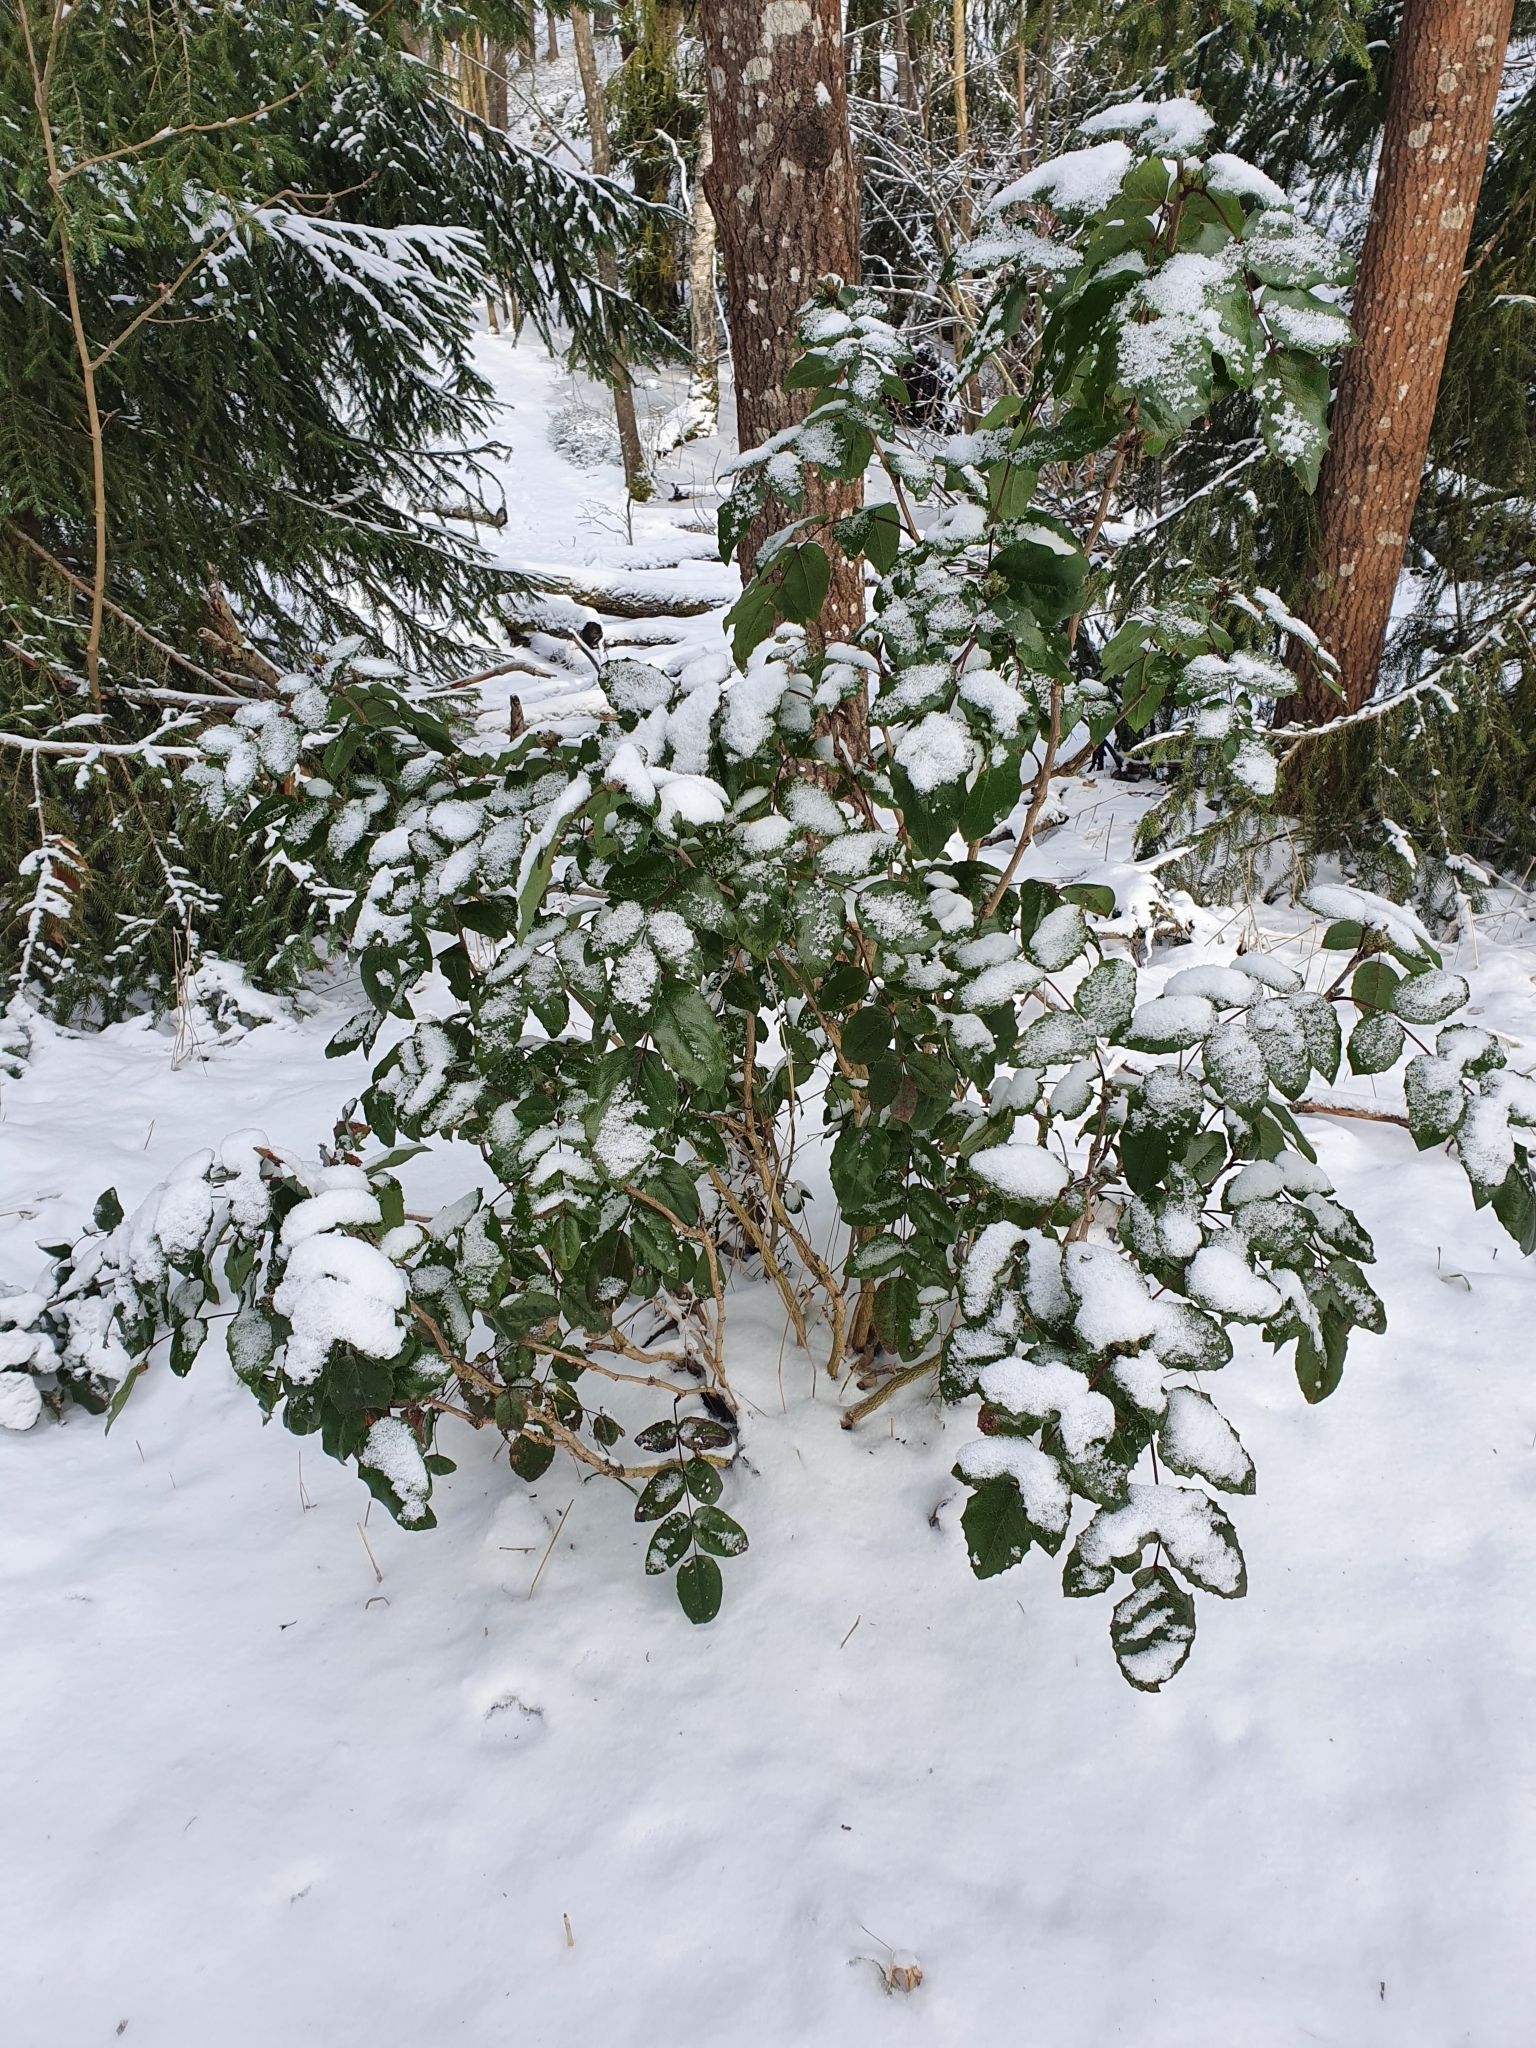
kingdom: Plantae
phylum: Tracheophyta
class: Magnoliopsida
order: Ranunculales
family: Berberidaceae
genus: Mahonia
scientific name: Mahonia aquifolium
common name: Oregon-grape
